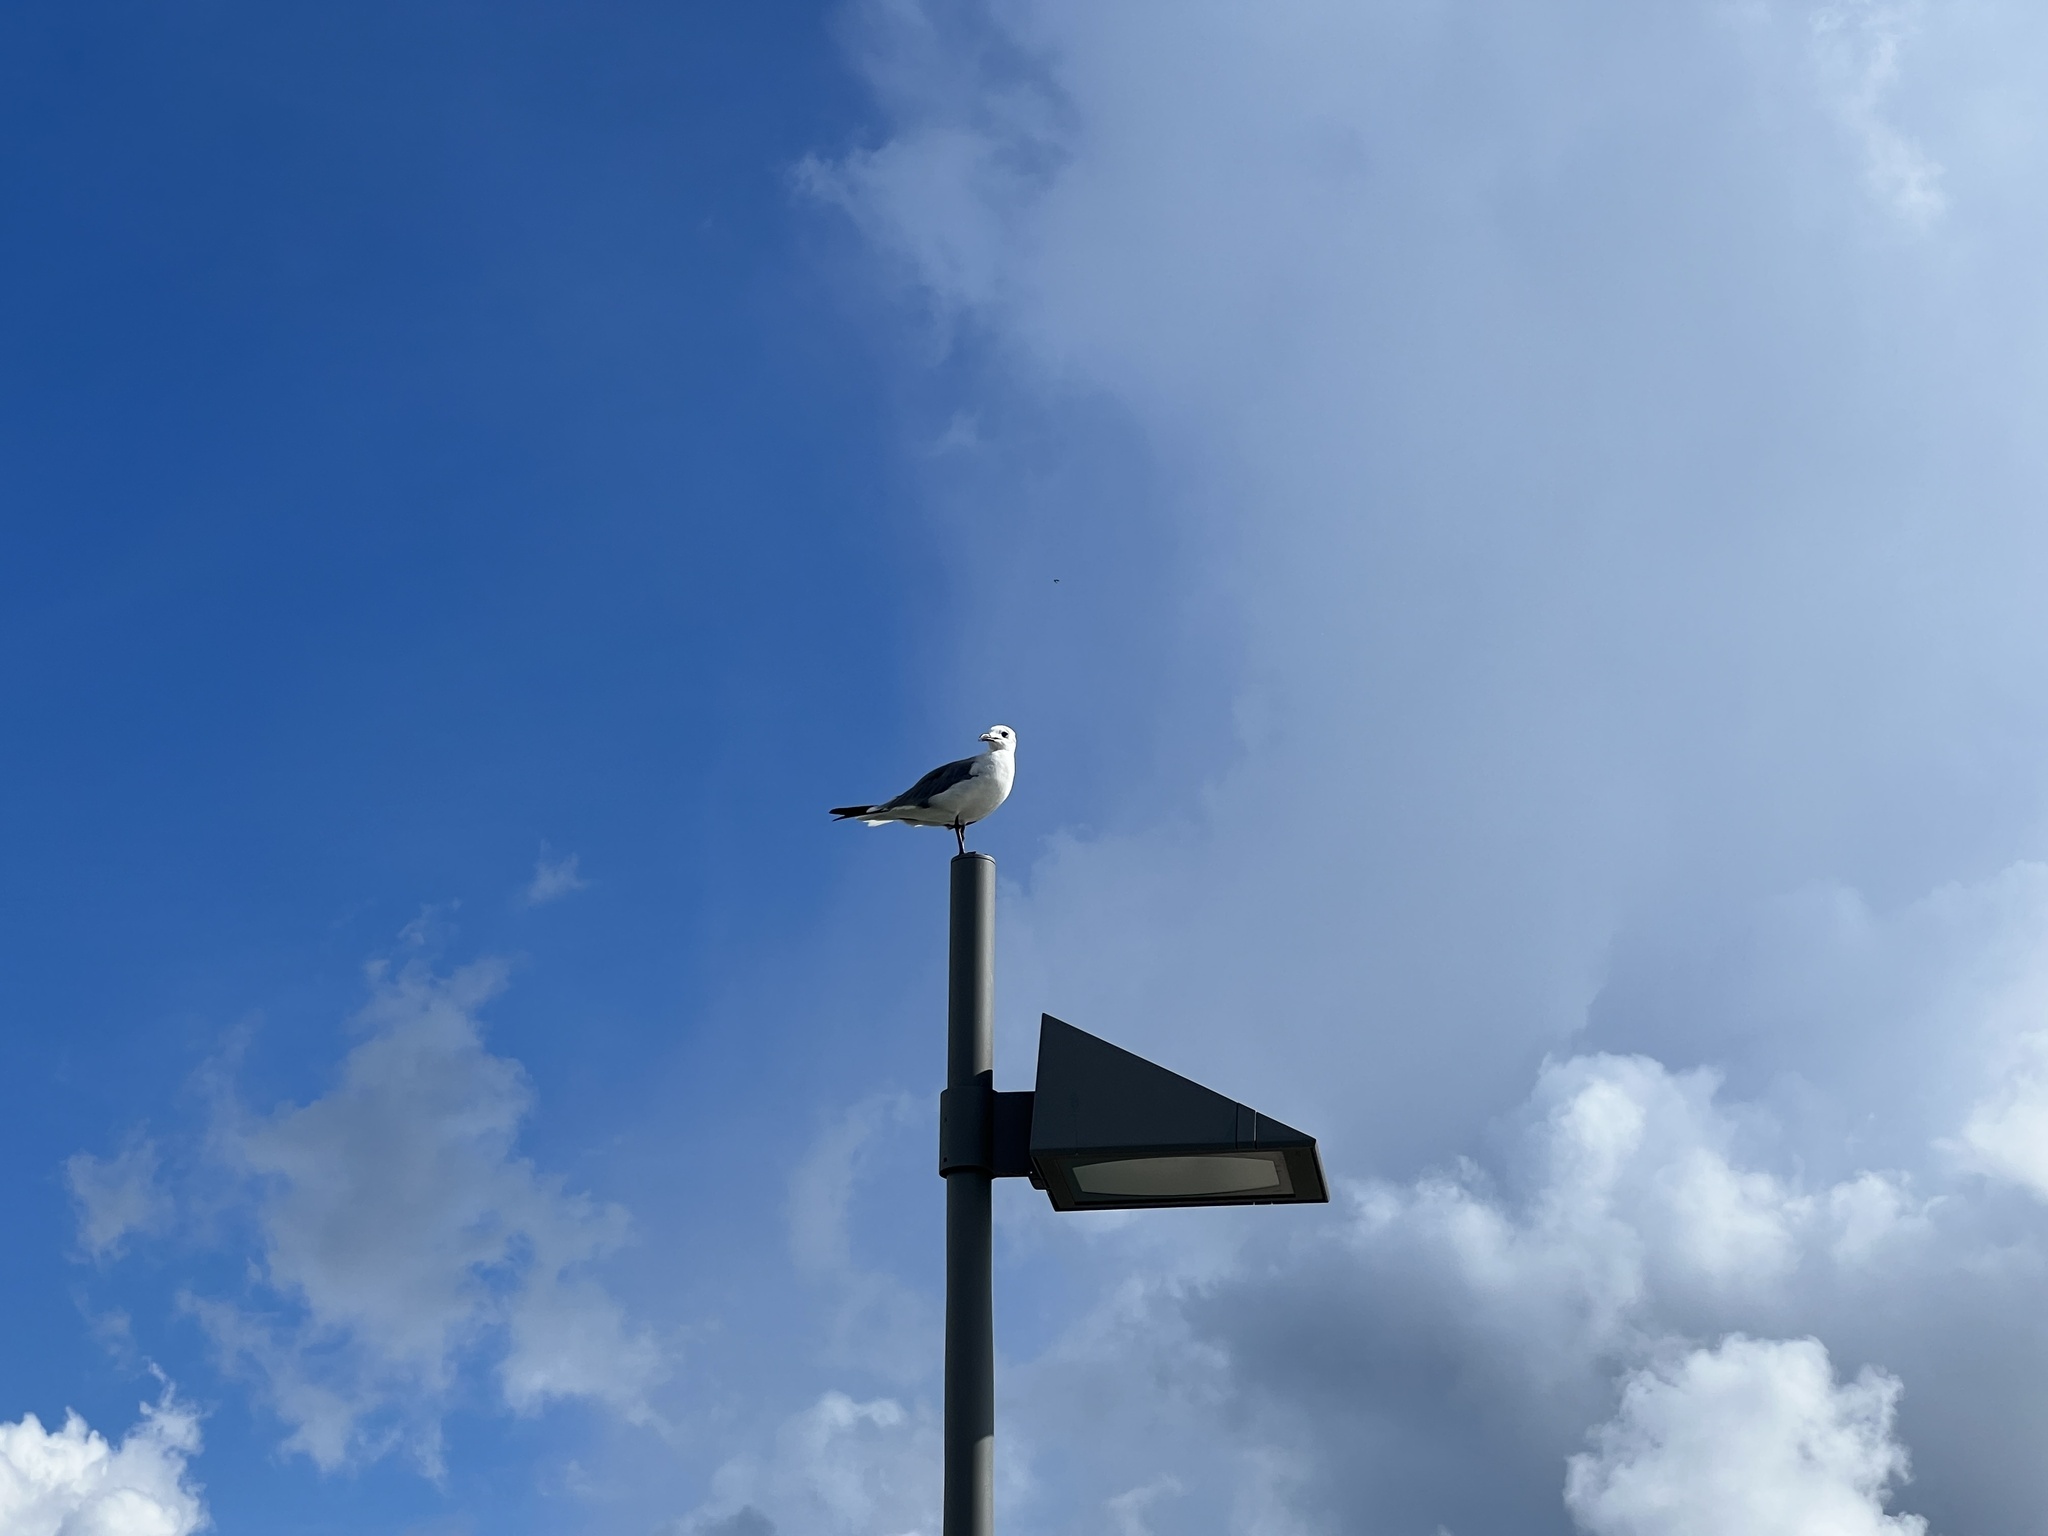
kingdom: Animalia
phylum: Chordata
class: Aves
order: Charadriiformes
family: Laridae
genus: Leucophaeus
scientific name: Leucophaeus atricilla
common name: Laughing gull
